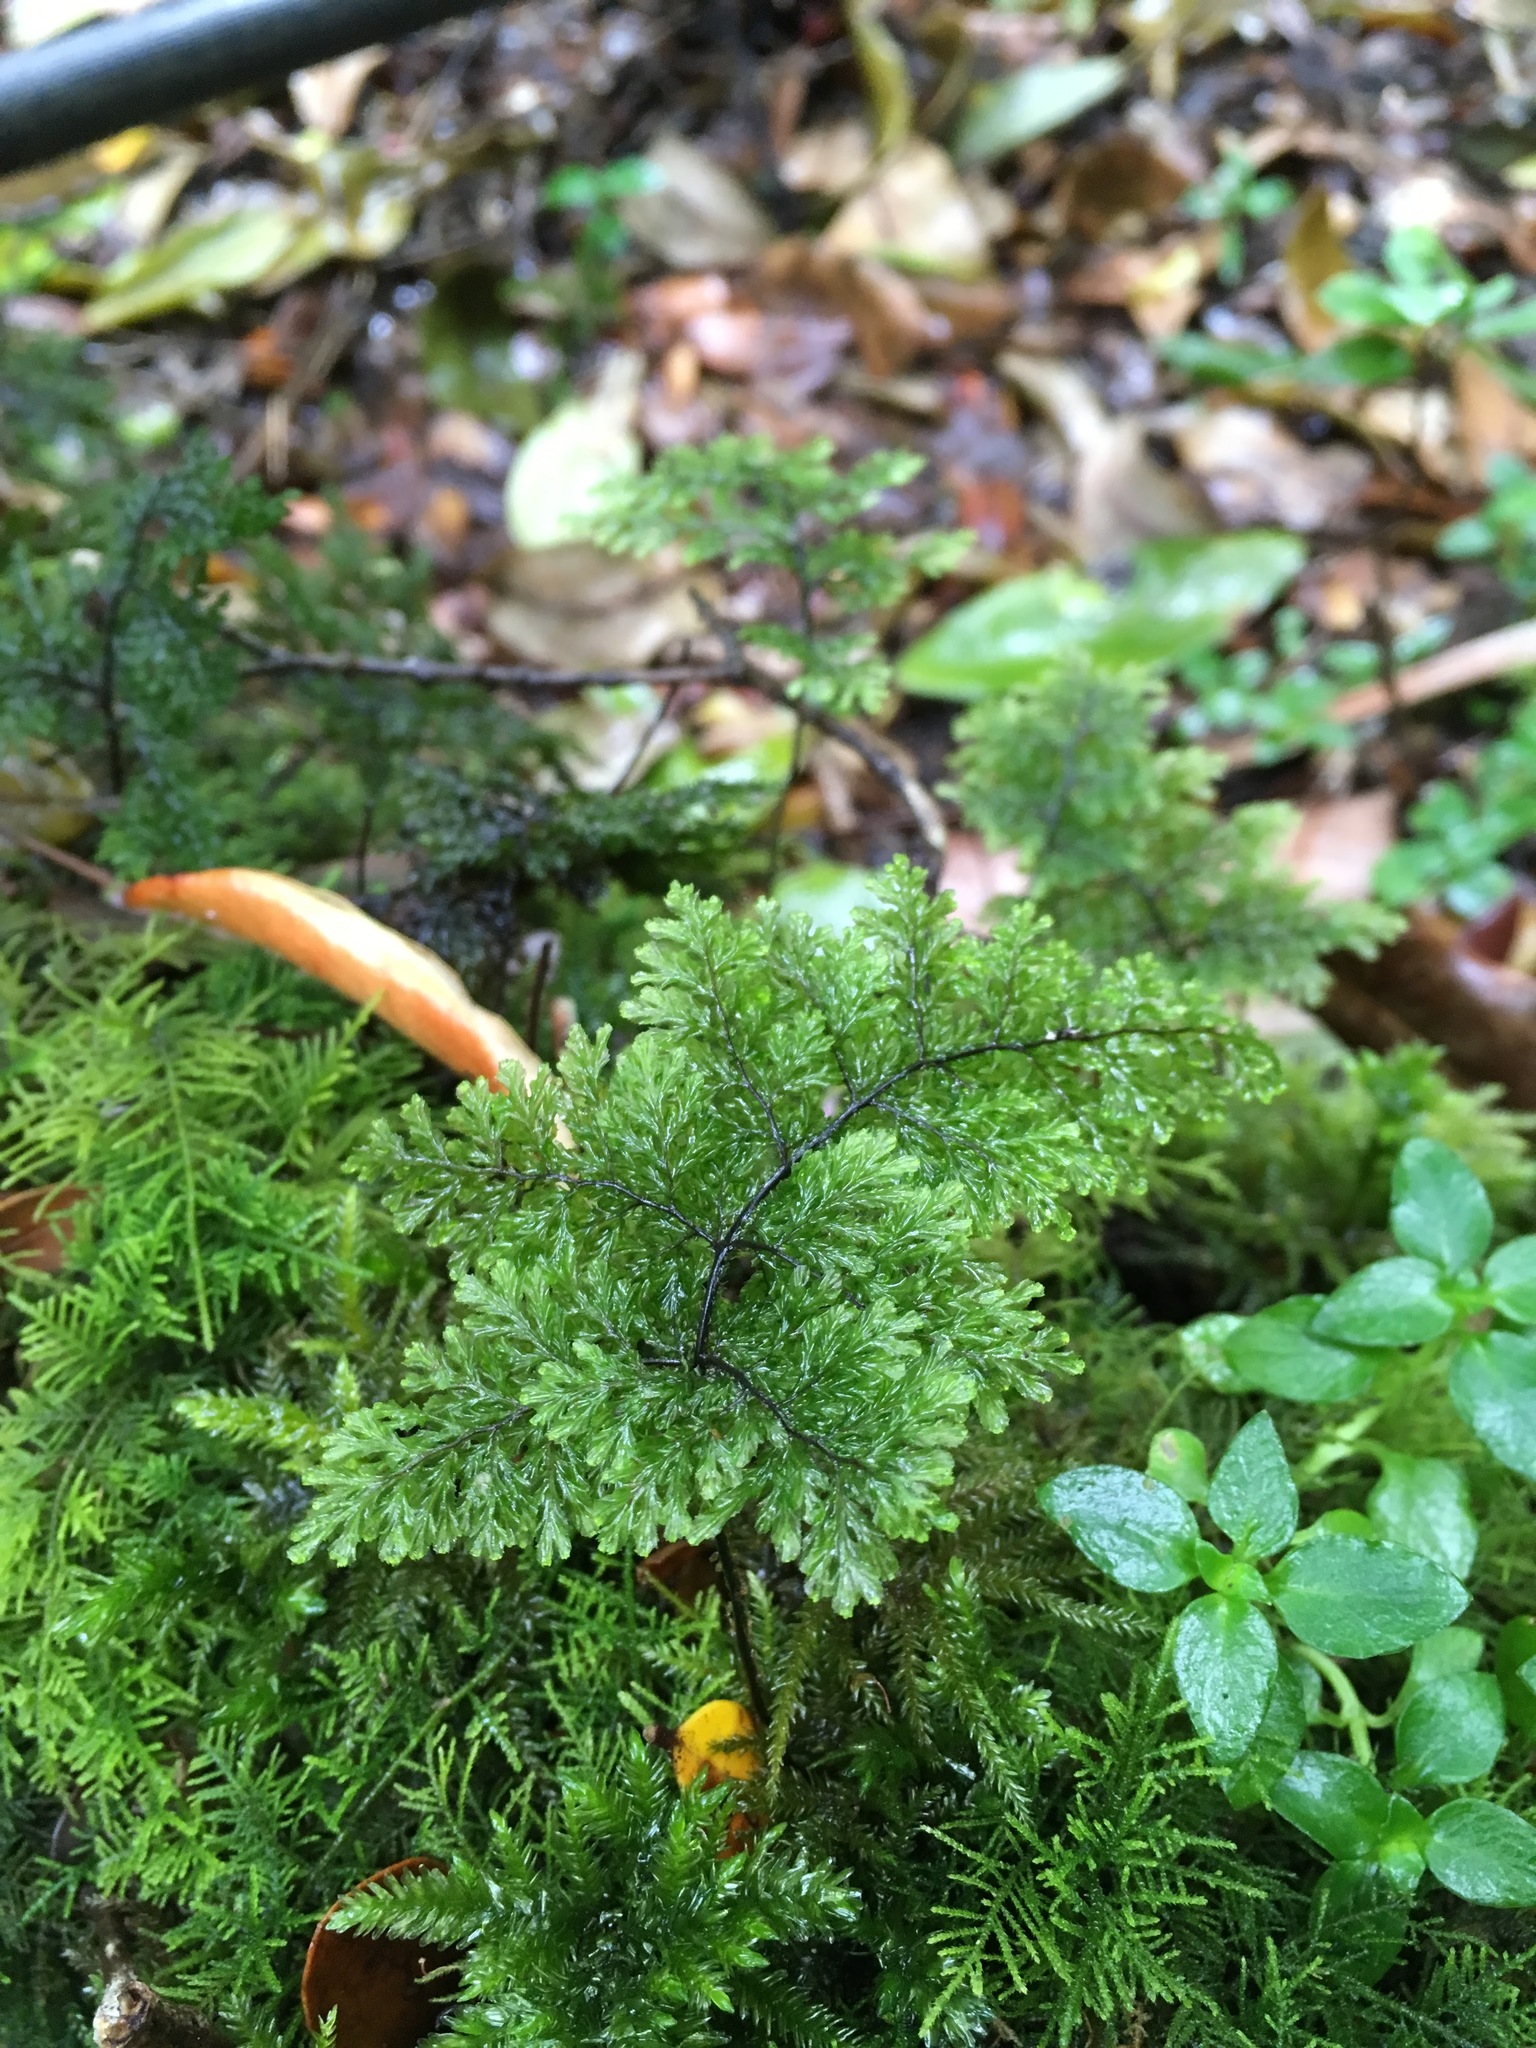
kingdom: Plantae
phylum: Tracheophyta
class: Polypodiopsida
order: Hymenophyllales
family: Hymenophyllaceae
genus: Hymenophyllum
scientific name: Hymenophyllum dentatum
